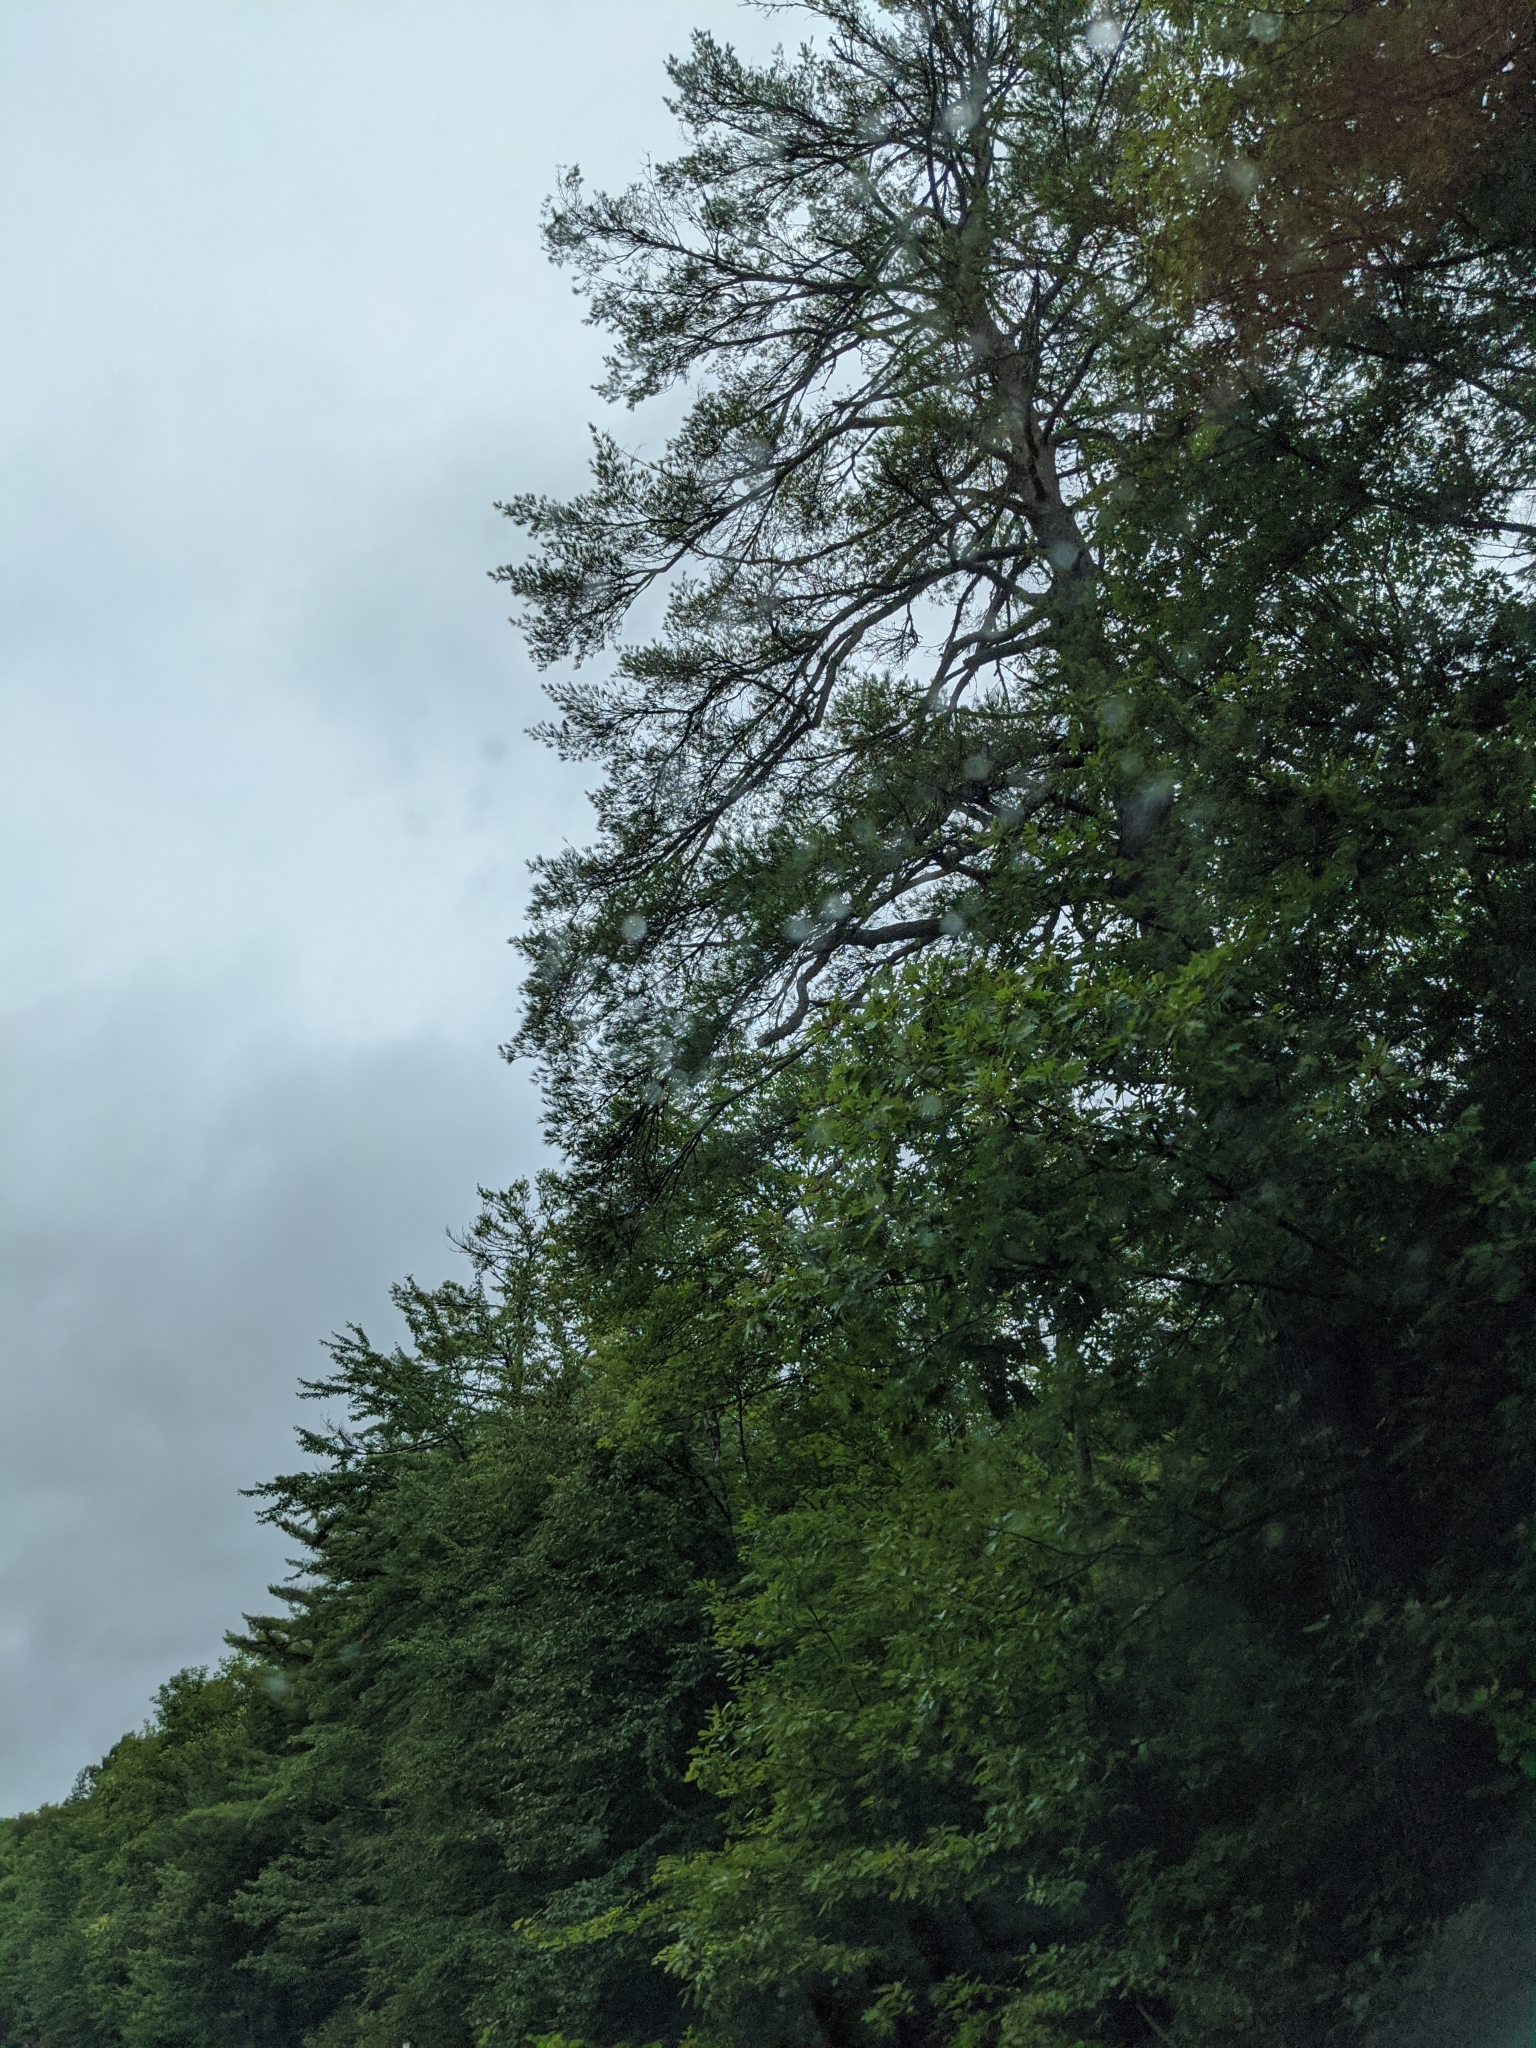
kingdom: Plantae
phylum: Tracheophyta
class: Pinopsida
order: Pinales
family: Pinaceae
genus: Pinus
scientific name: Pinus strobus
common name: Weymouth pine
